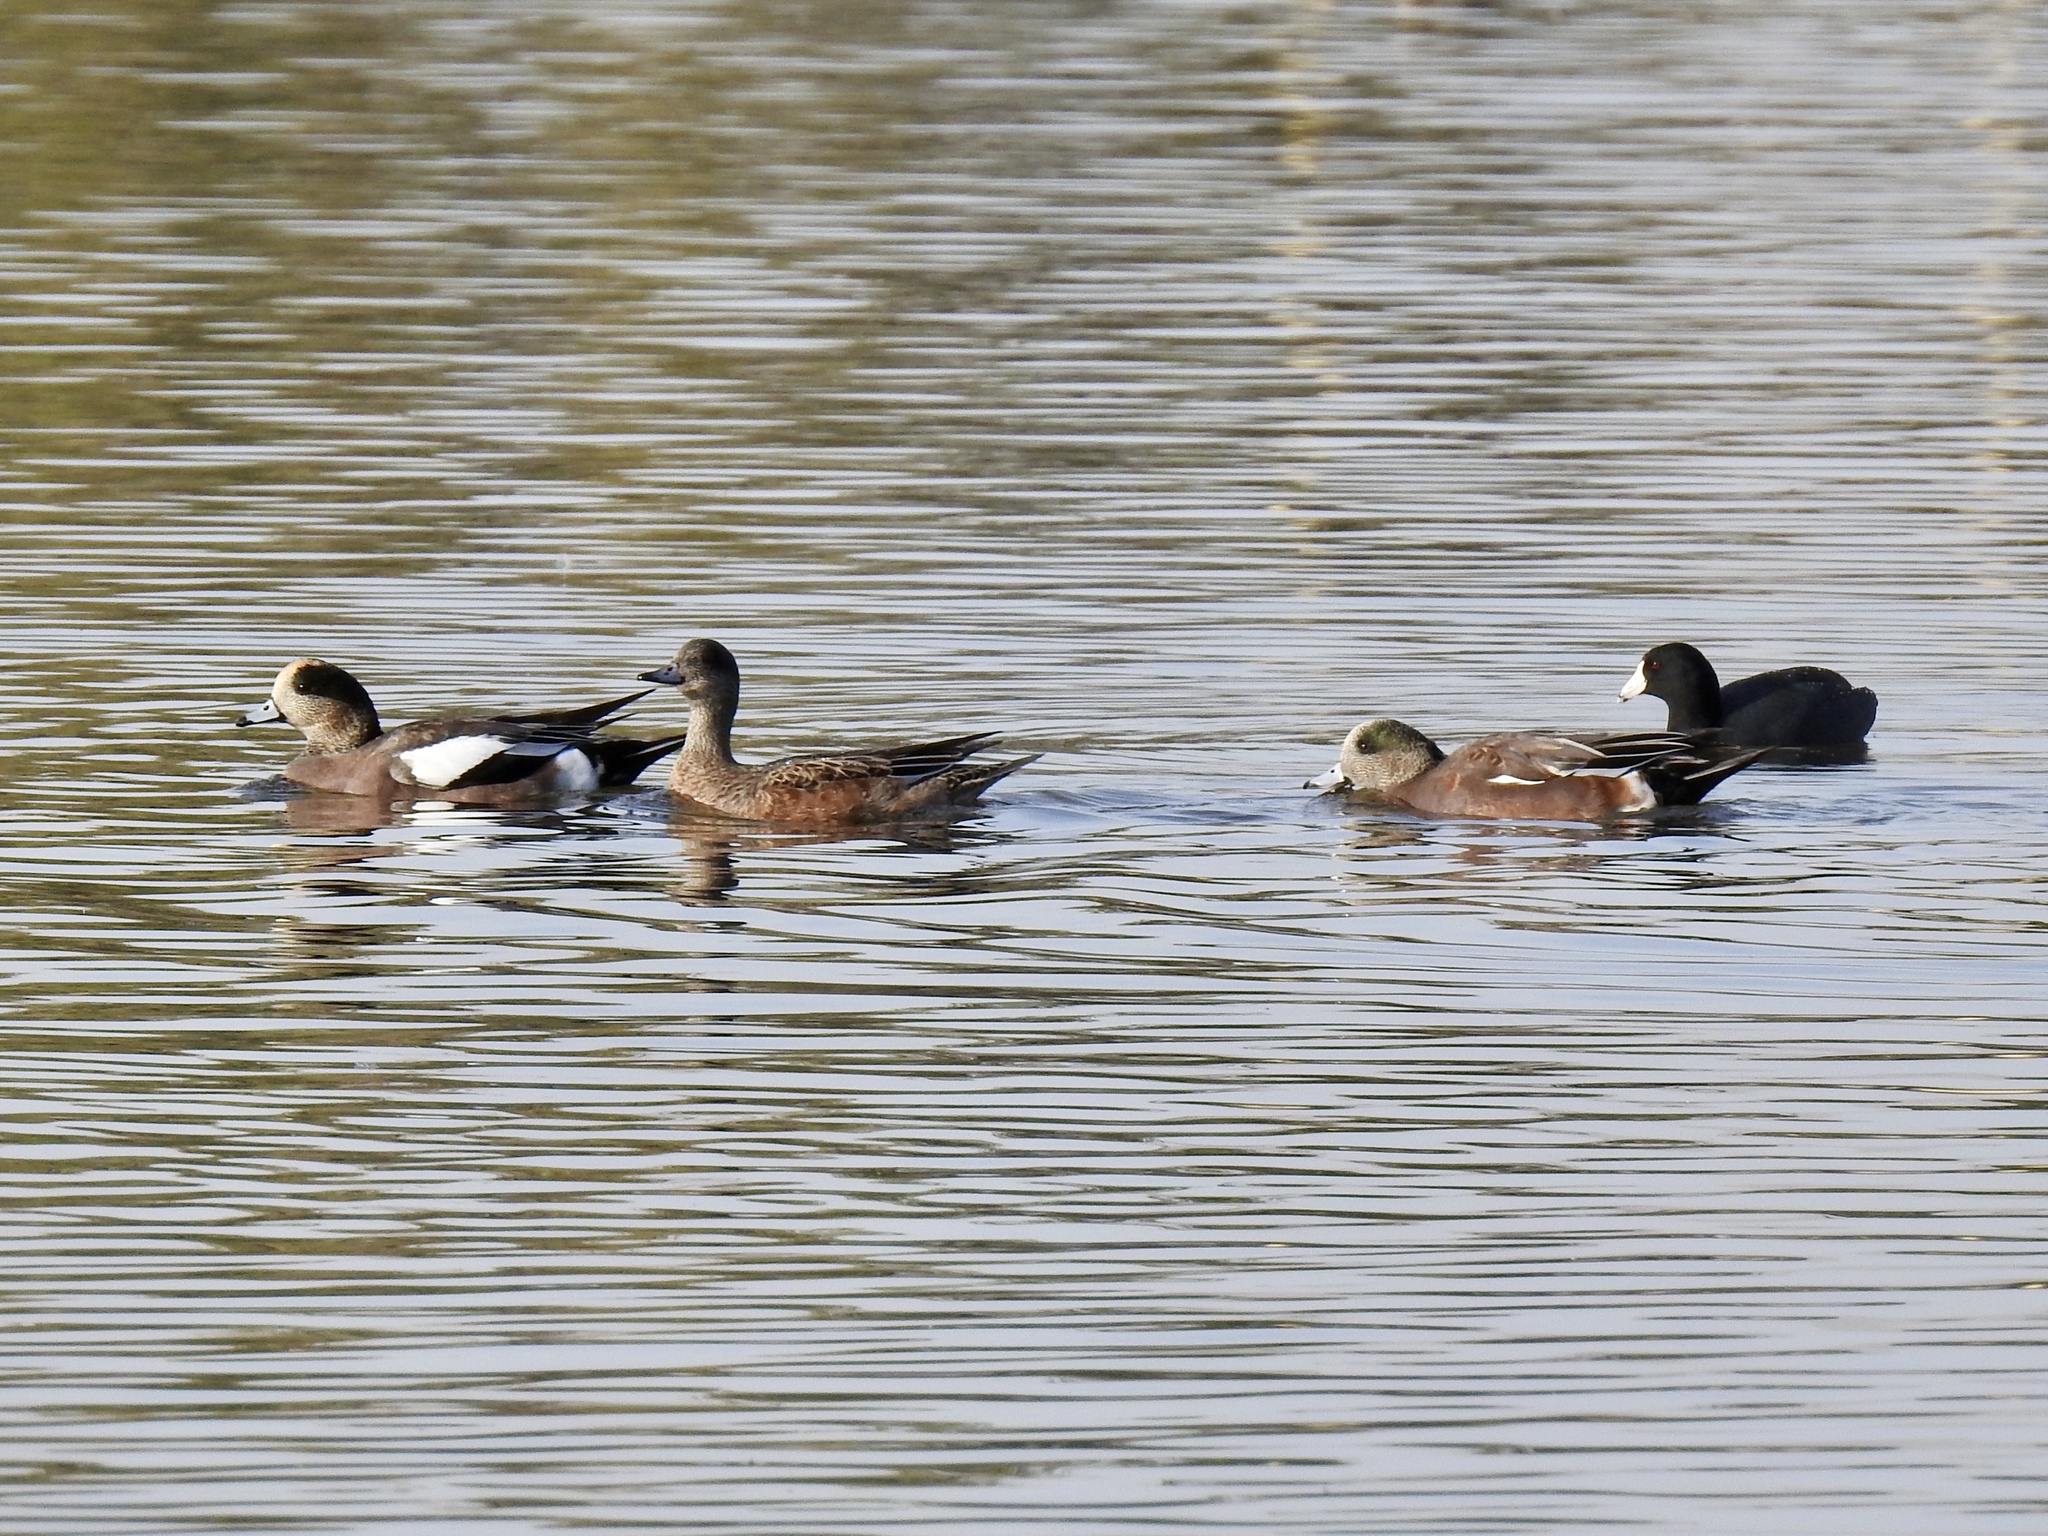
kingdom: Animalia
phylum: Chordata
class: Aves
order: Anseriformes
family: Anatidae
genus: Mareca
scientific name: Mareca americana
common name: American wigeon
